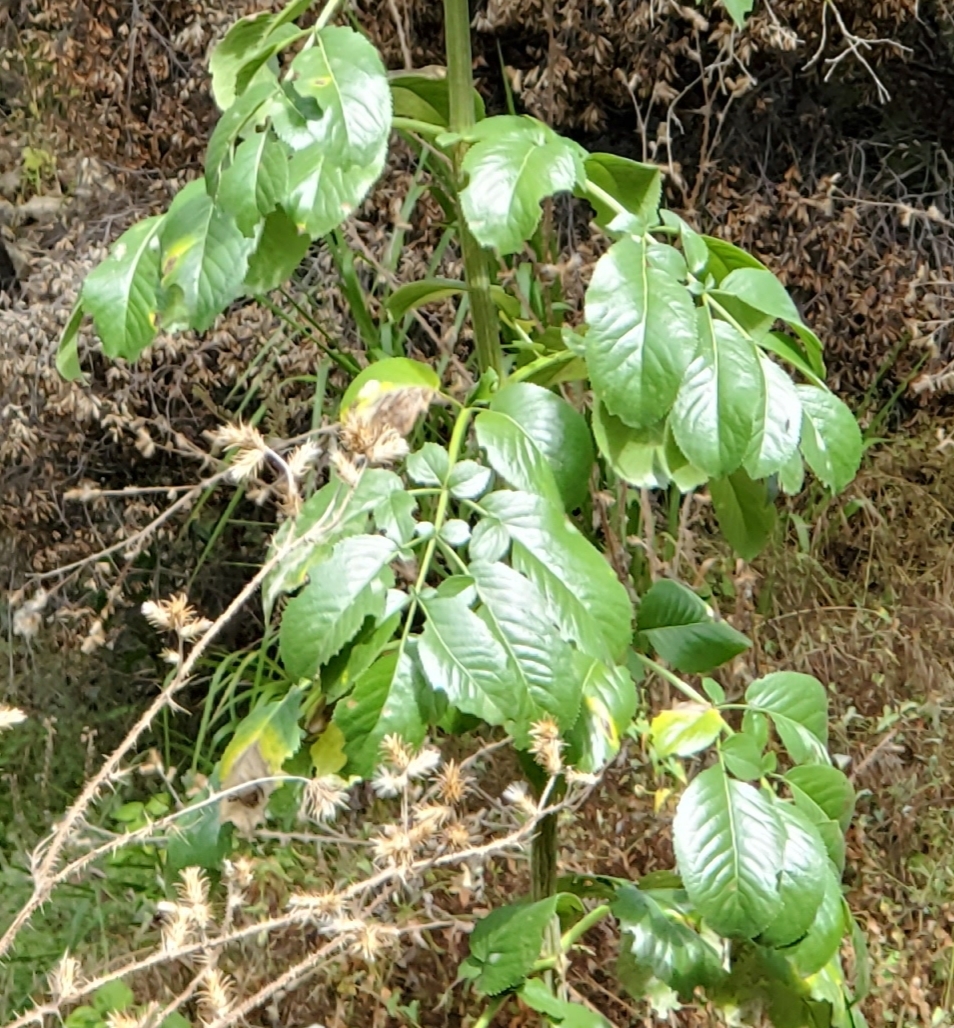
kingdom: Plantae
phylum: Tracheophyta
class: Magnoliopsida
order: Dipsacales
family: Viburnaceae
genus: Sambucus
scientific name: Sambucus cerulea
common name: Blue elder
